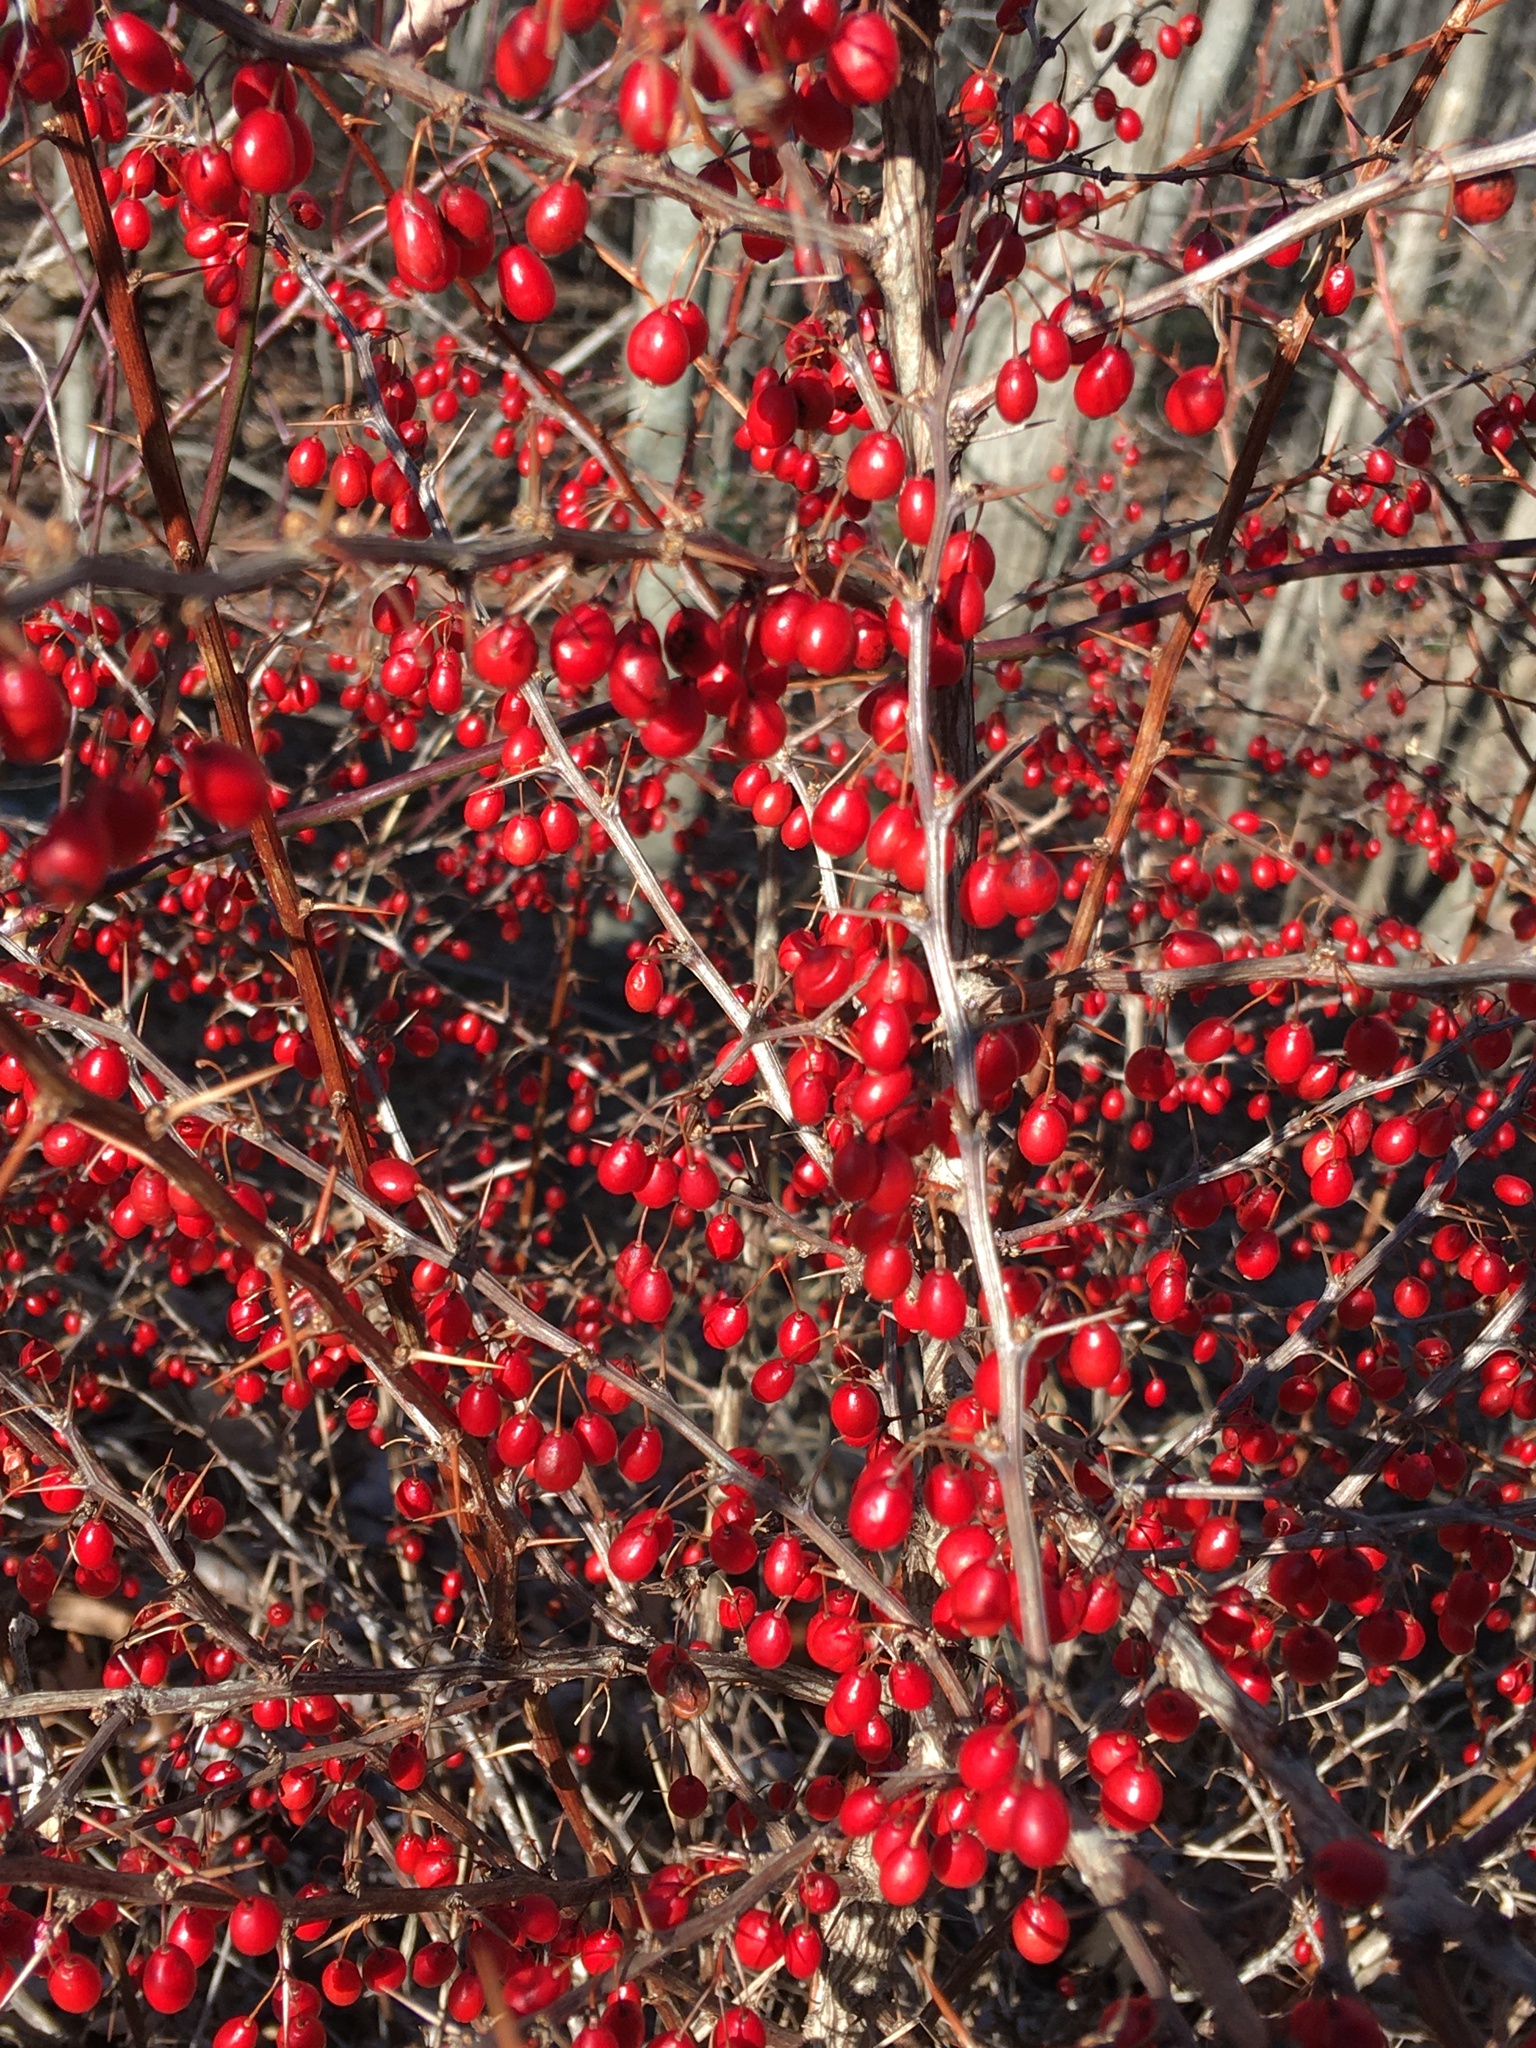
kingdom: Plantae
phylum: Tracheophyta
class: Magnoliopsida
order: Ranunculales
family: Berberidaceae
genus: Berberis
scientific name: Berberis thunbergii
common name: Japanese barberry
